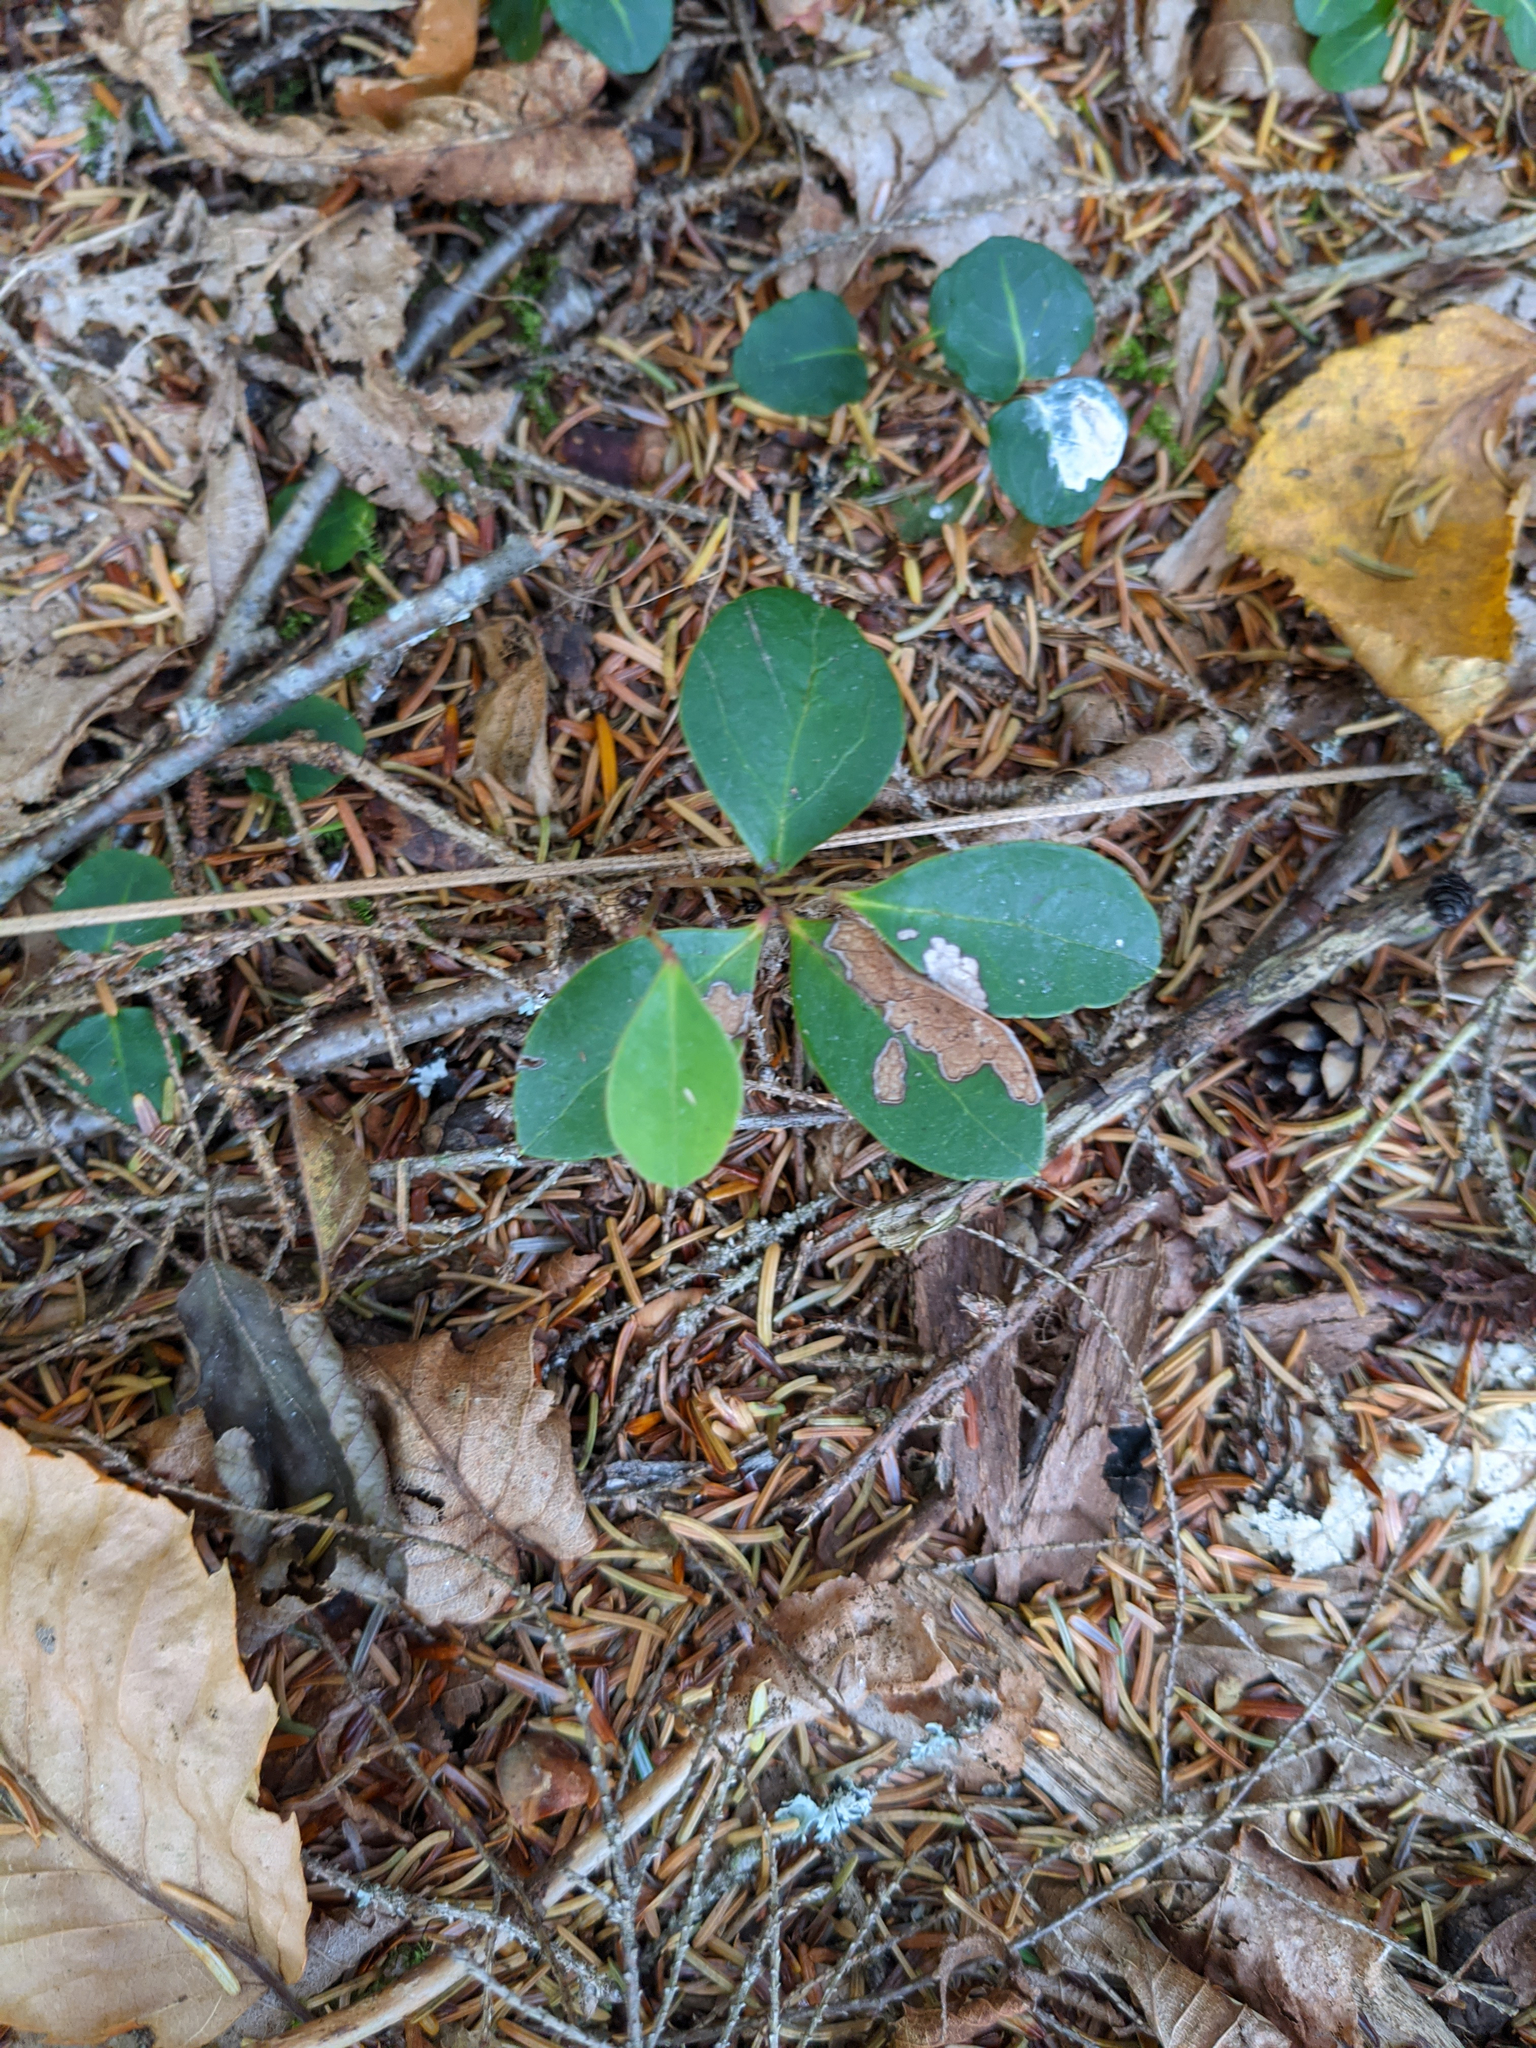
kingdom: Plantae
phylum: Tracheophyta
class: Magnoliopsida
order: Ericales
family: Ericaceae
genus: Gaultheria
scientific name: Gaultheria procumbens
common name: Checkerberry
